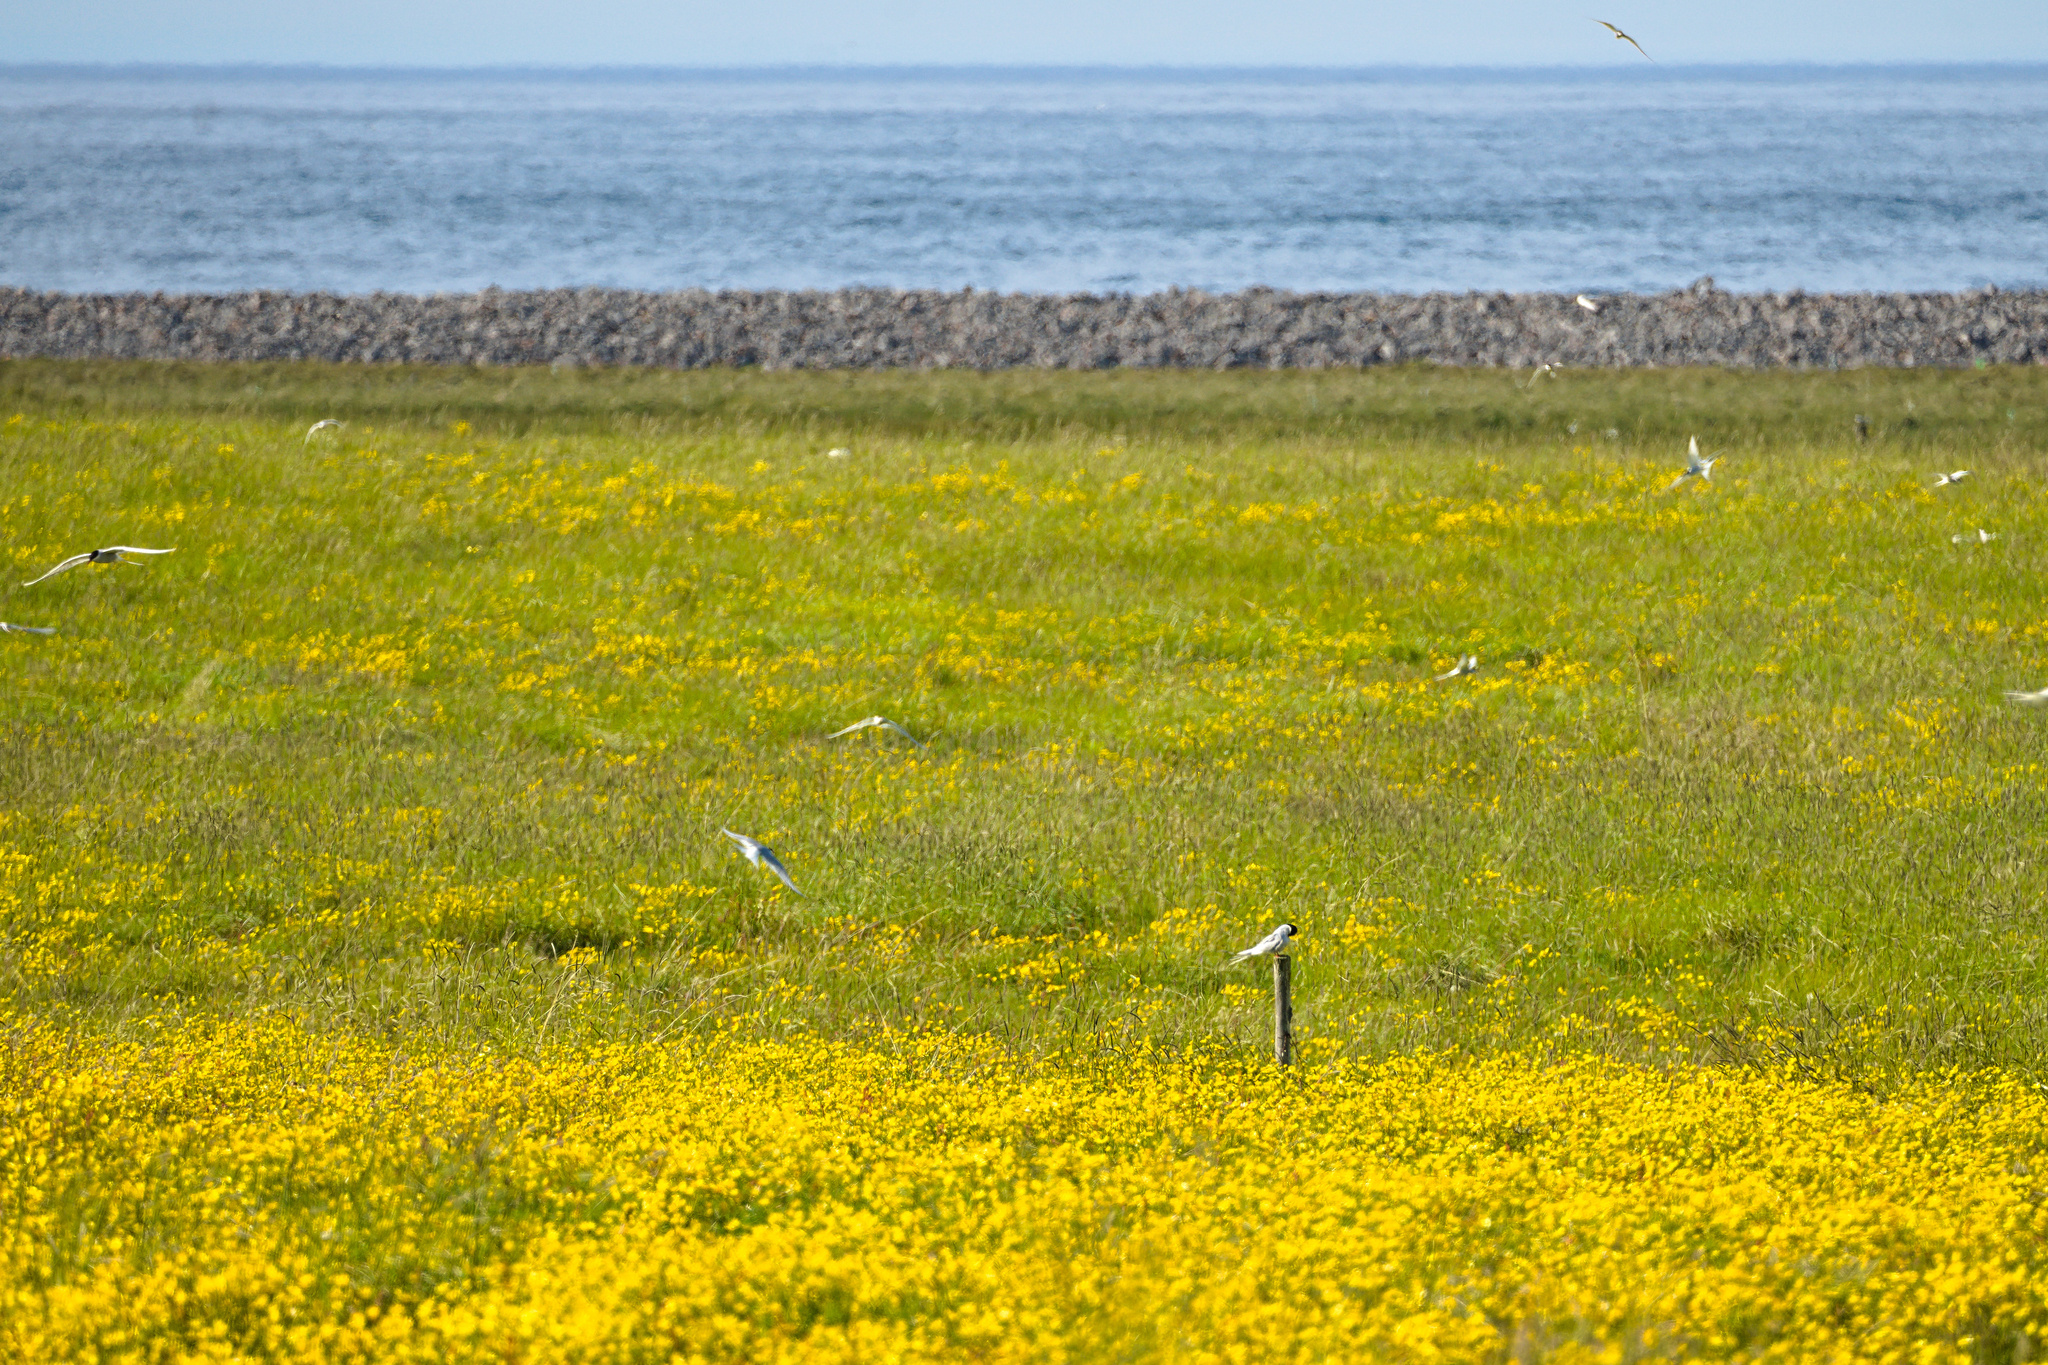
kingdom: Animalia
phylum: Chordata
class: Aves
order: Charadriiformes
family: Laridae
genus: Sterna
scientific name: Sterna paradisaea
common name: Arctic tern
